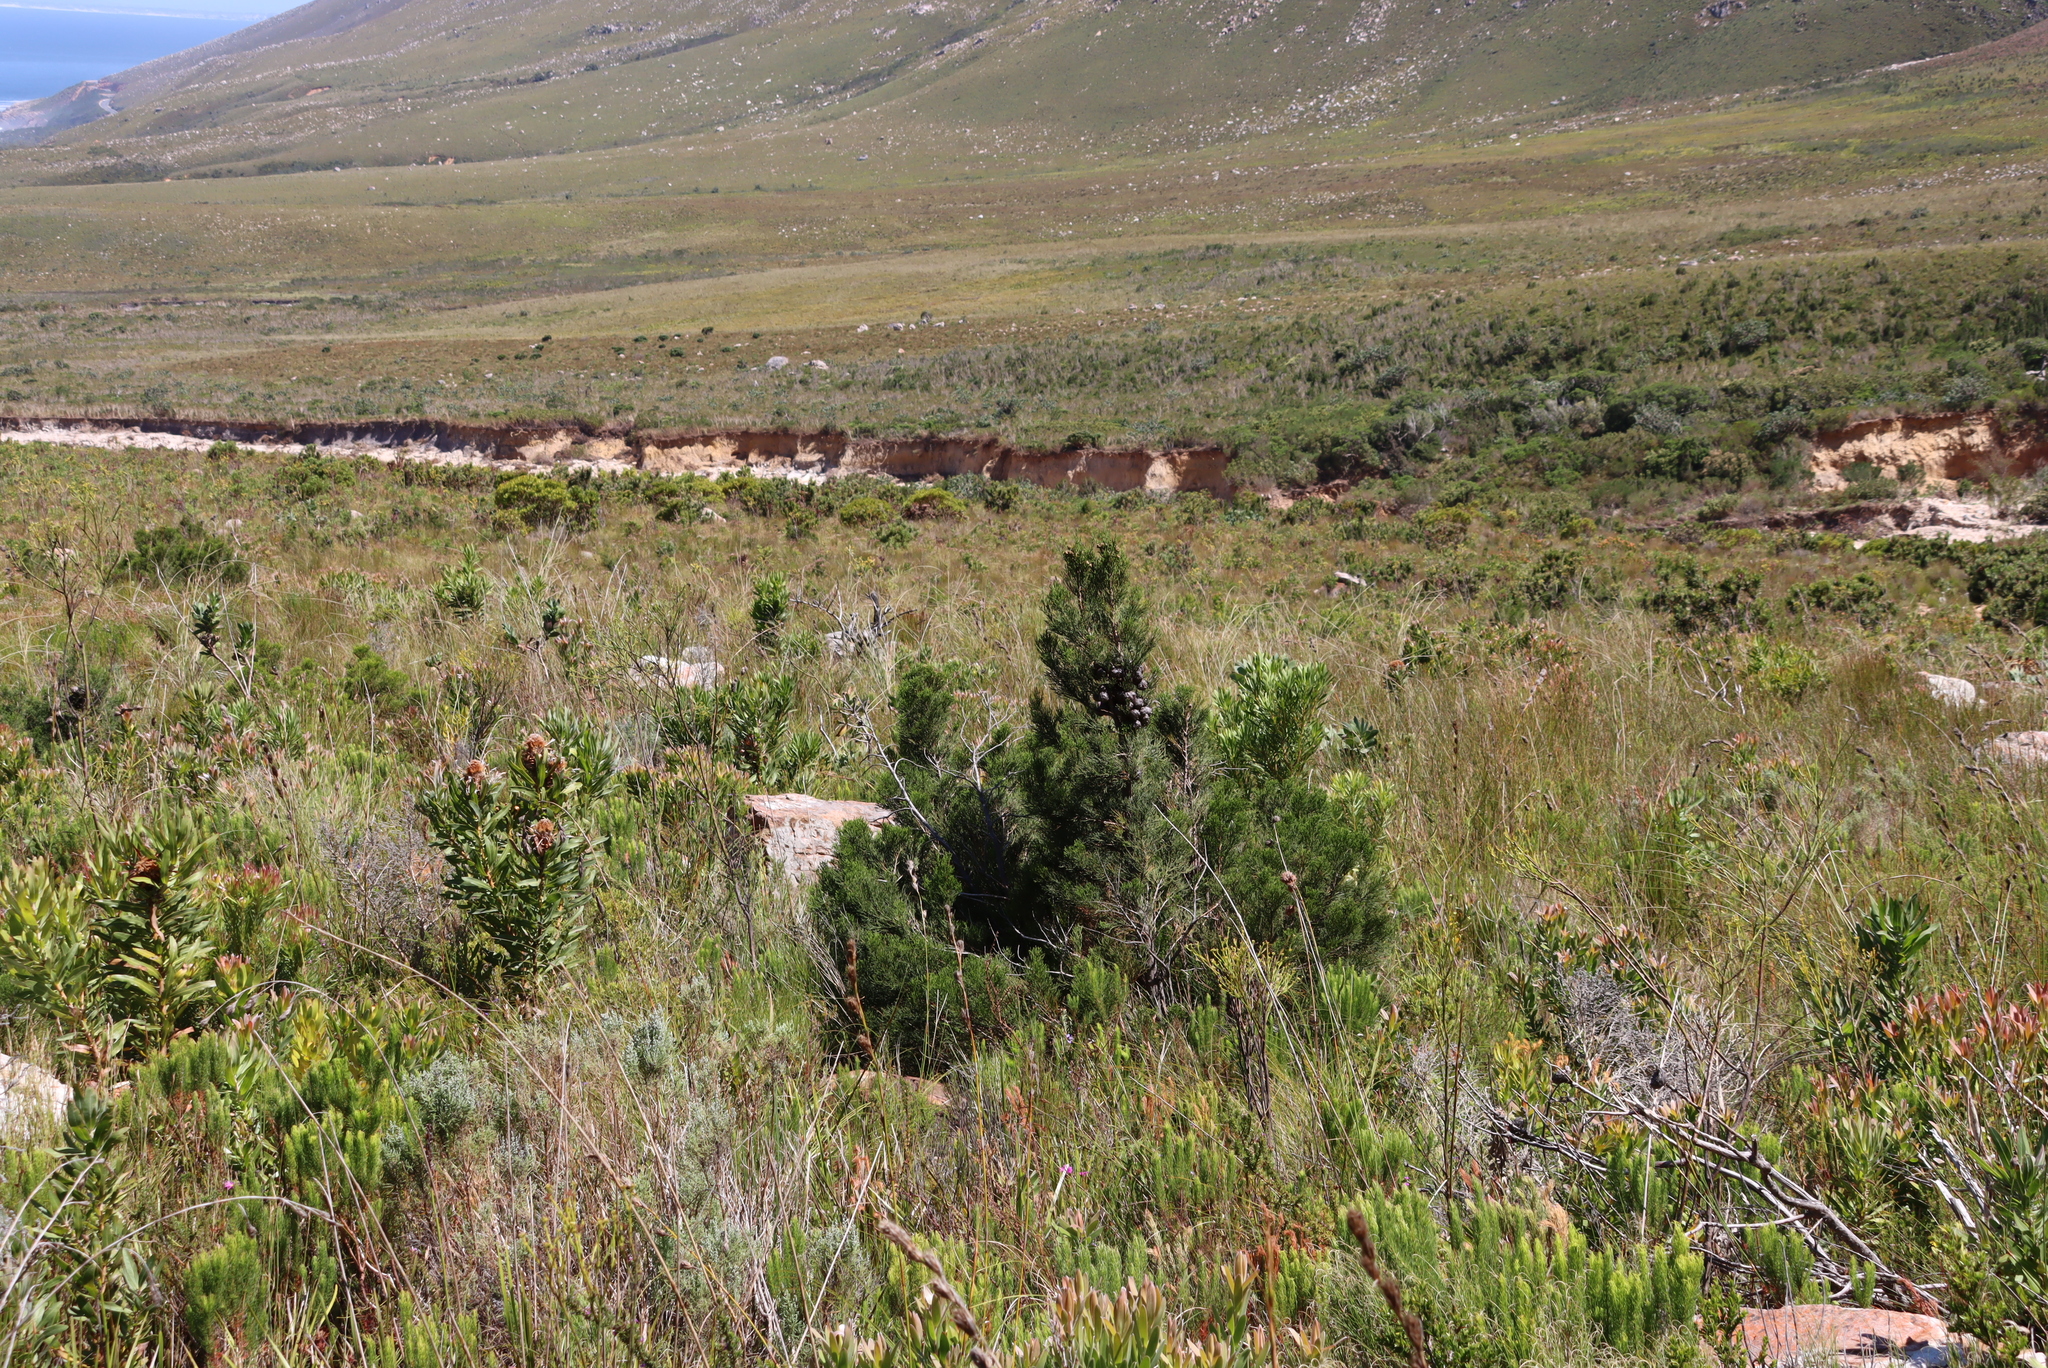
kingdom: Plantae
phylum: Tracheophyta
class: Pinopsida
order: Pinales
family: Cupressaceae
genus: Widdringtonia
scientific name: Widdringtonia nodiflora
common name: Cape cypress
